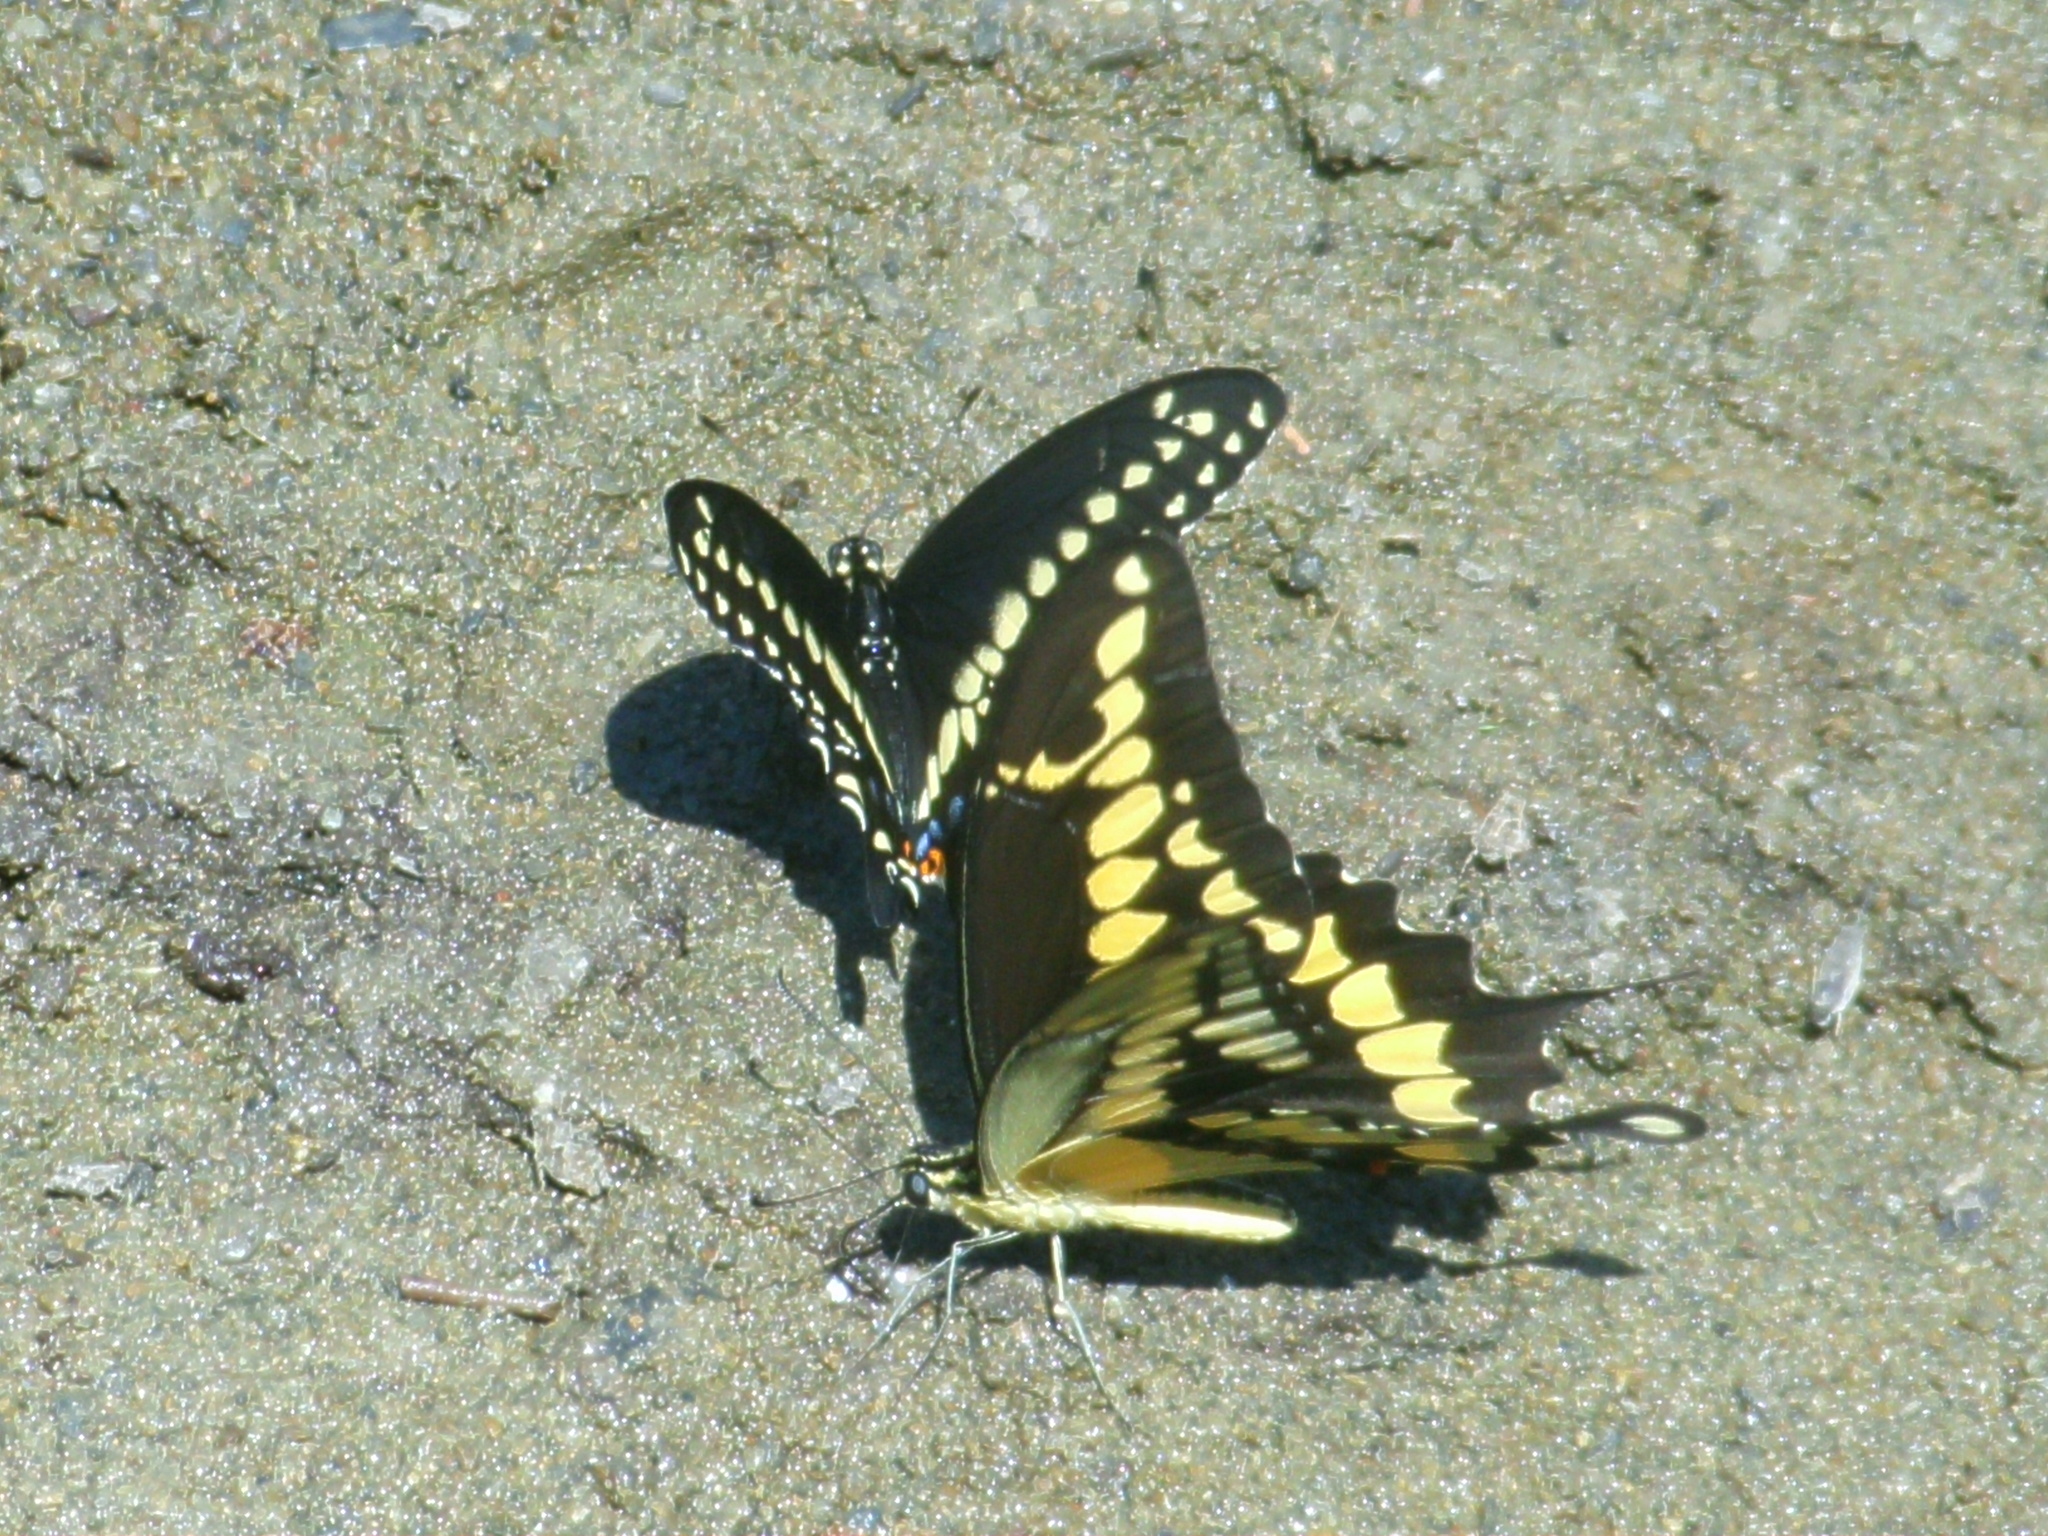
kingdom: Animalia
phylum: Arthropoda
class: Insecta
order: Lepidoptera
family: Papilionidae
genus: Papilio
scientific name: Papilio polyxenes
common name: Black swallowtail
